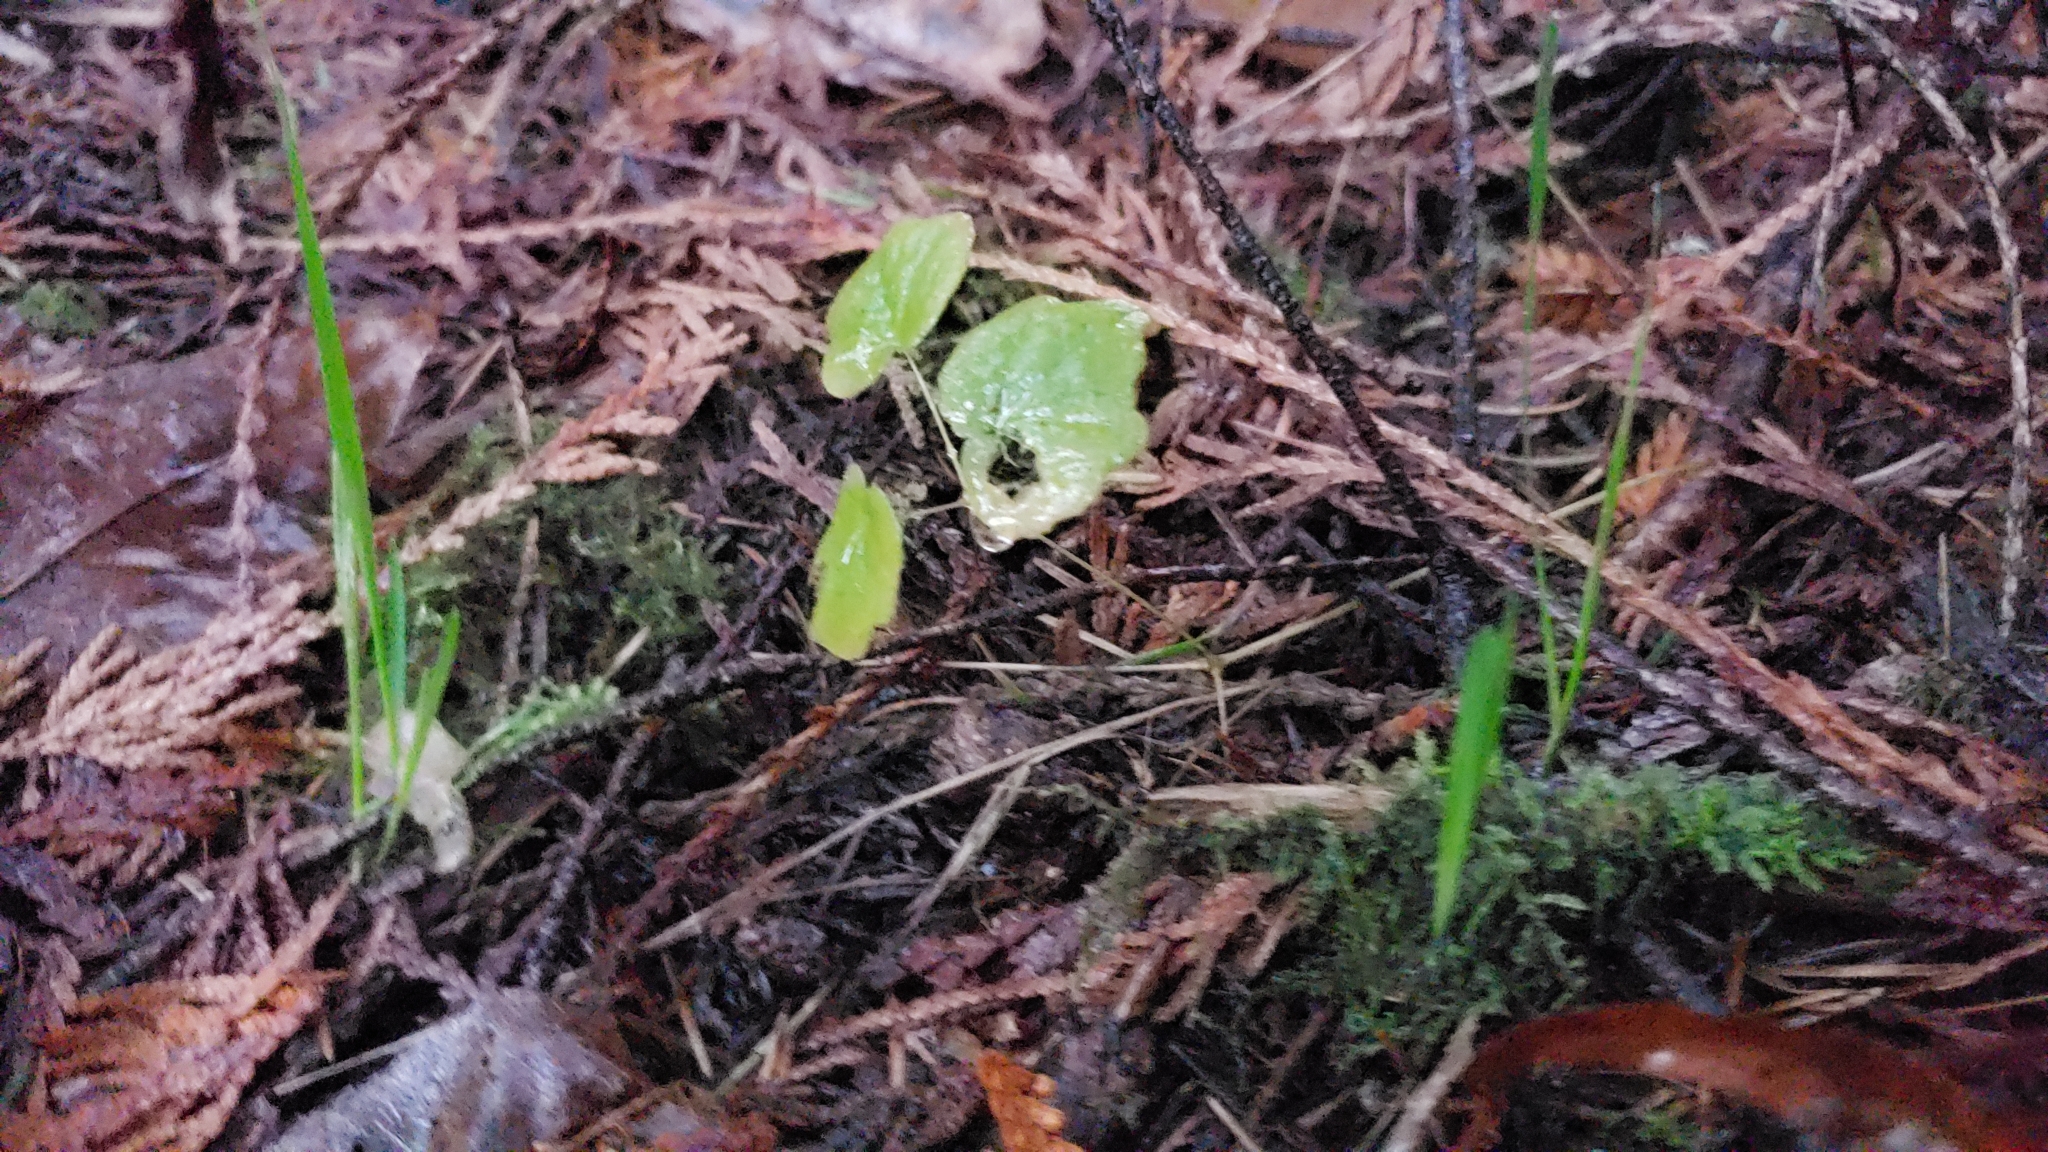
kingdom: Plantae
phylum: Tracheophyta
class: Magnoliopsida
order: Ranunculales
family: Berberidaceae
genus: Vancouveria
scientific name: Vancouveria hexandra
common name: Northern inside-out-flower
